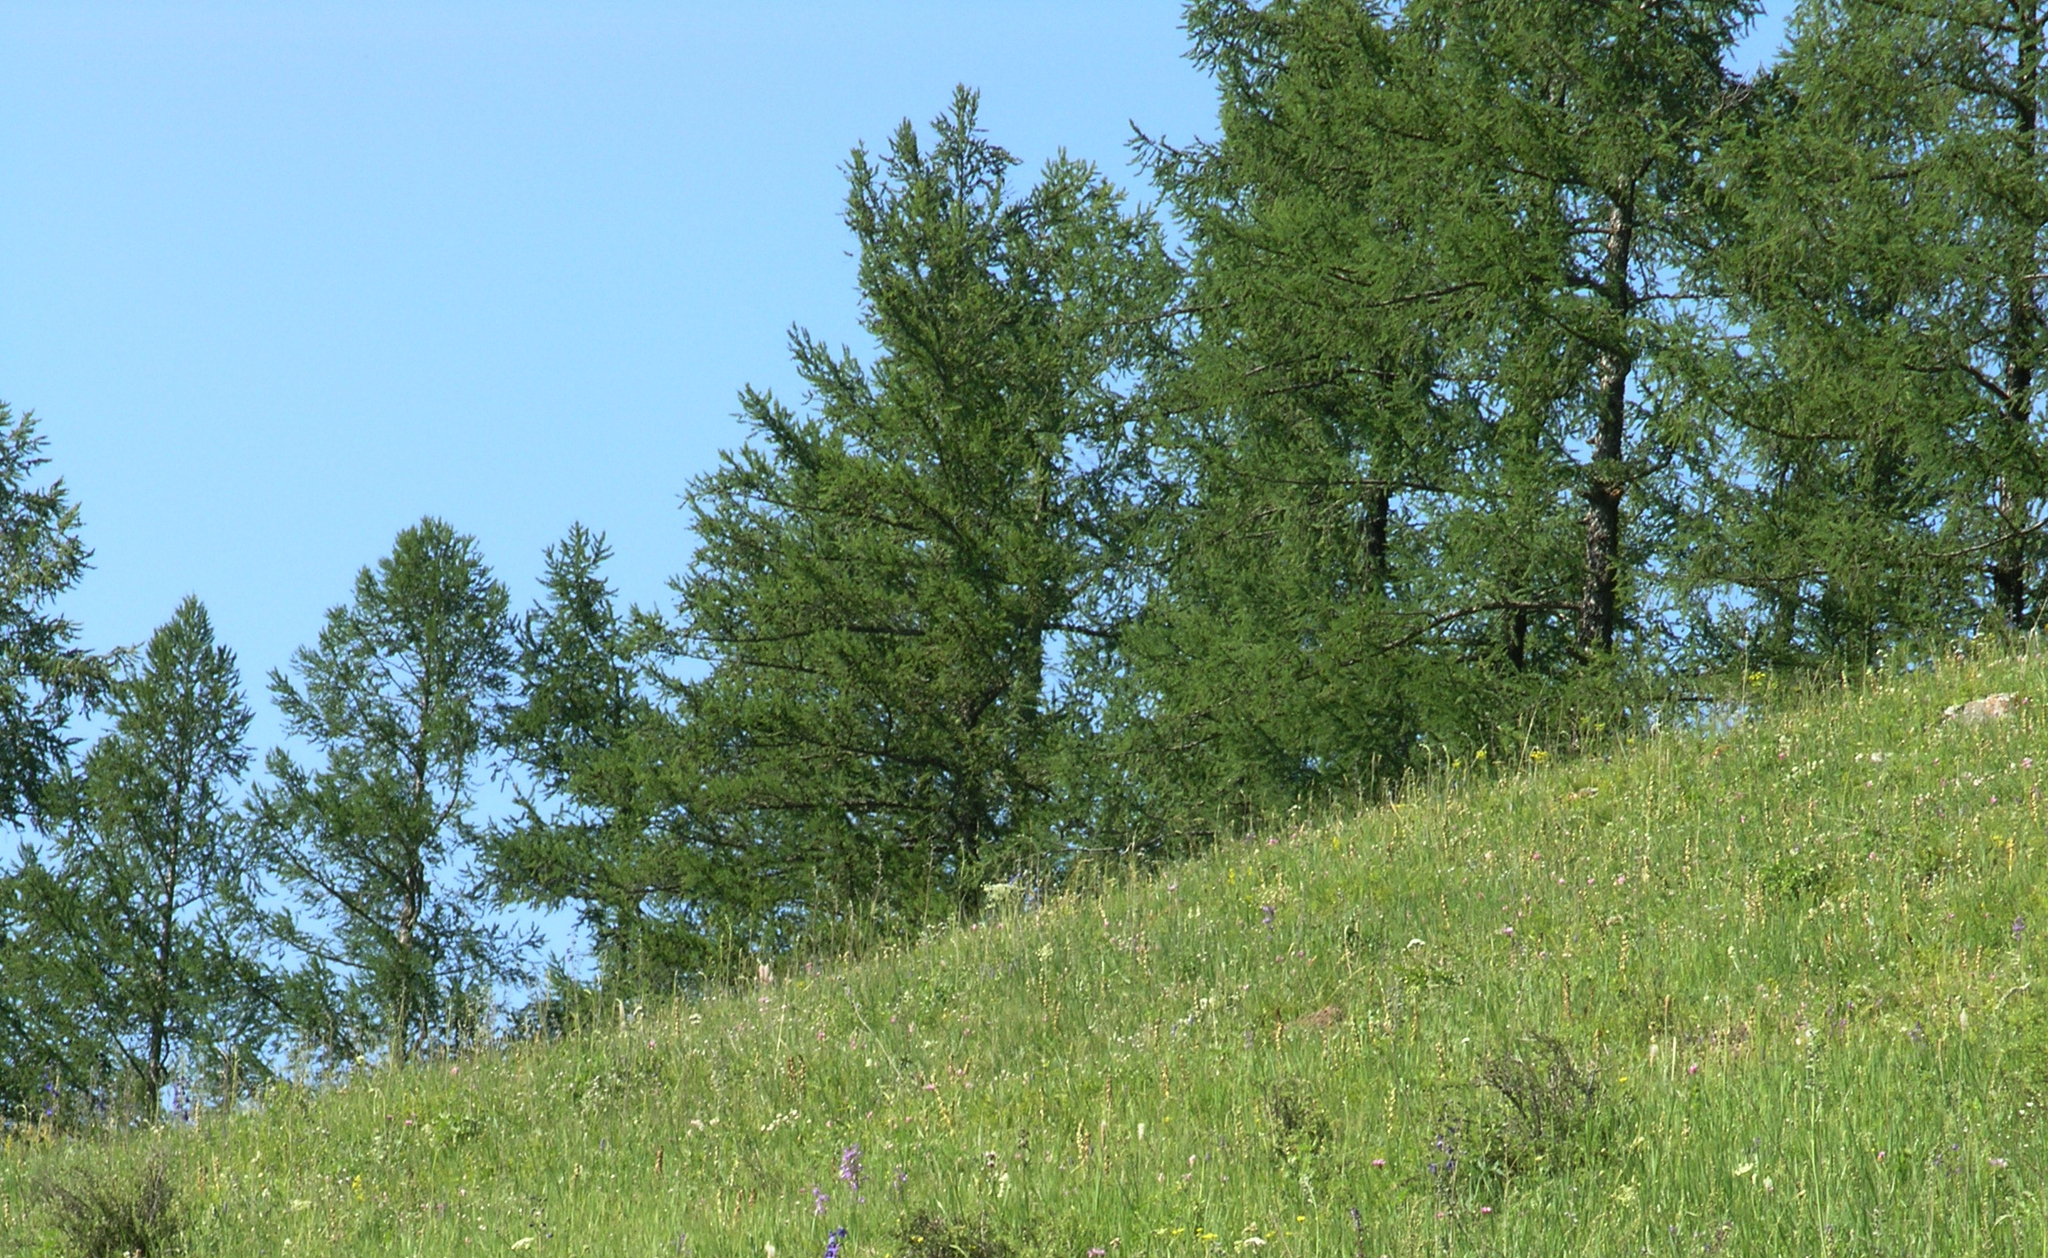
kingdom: Plantae
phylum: Tracheophyta
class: Pinopsida
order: Pinales
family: Pinaceae
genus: Larix
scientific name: Larix sibirica
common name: Siberian larch
